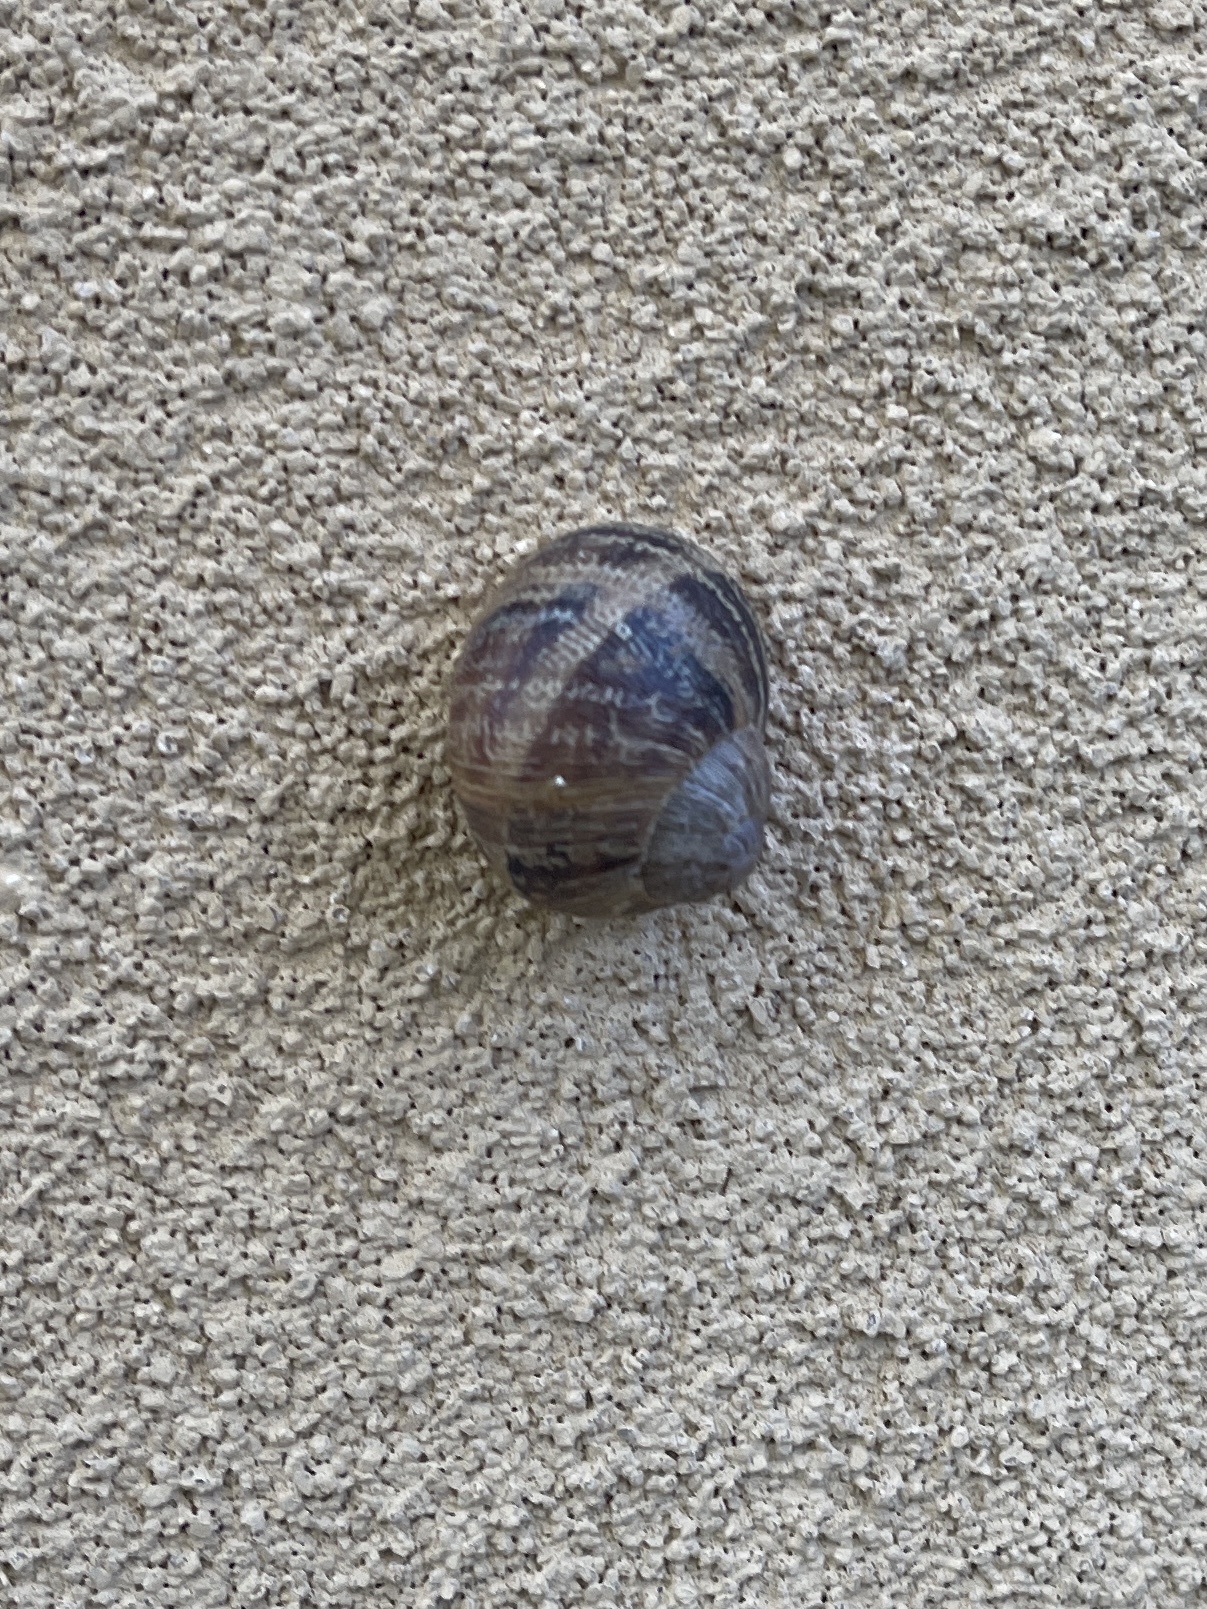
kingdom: Animalia
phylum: Mollusca
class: Gastropoda
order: Stylommatophora
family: Helicidae
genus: Cornu
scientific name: Cornu aspersum
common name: Brown garden snail
